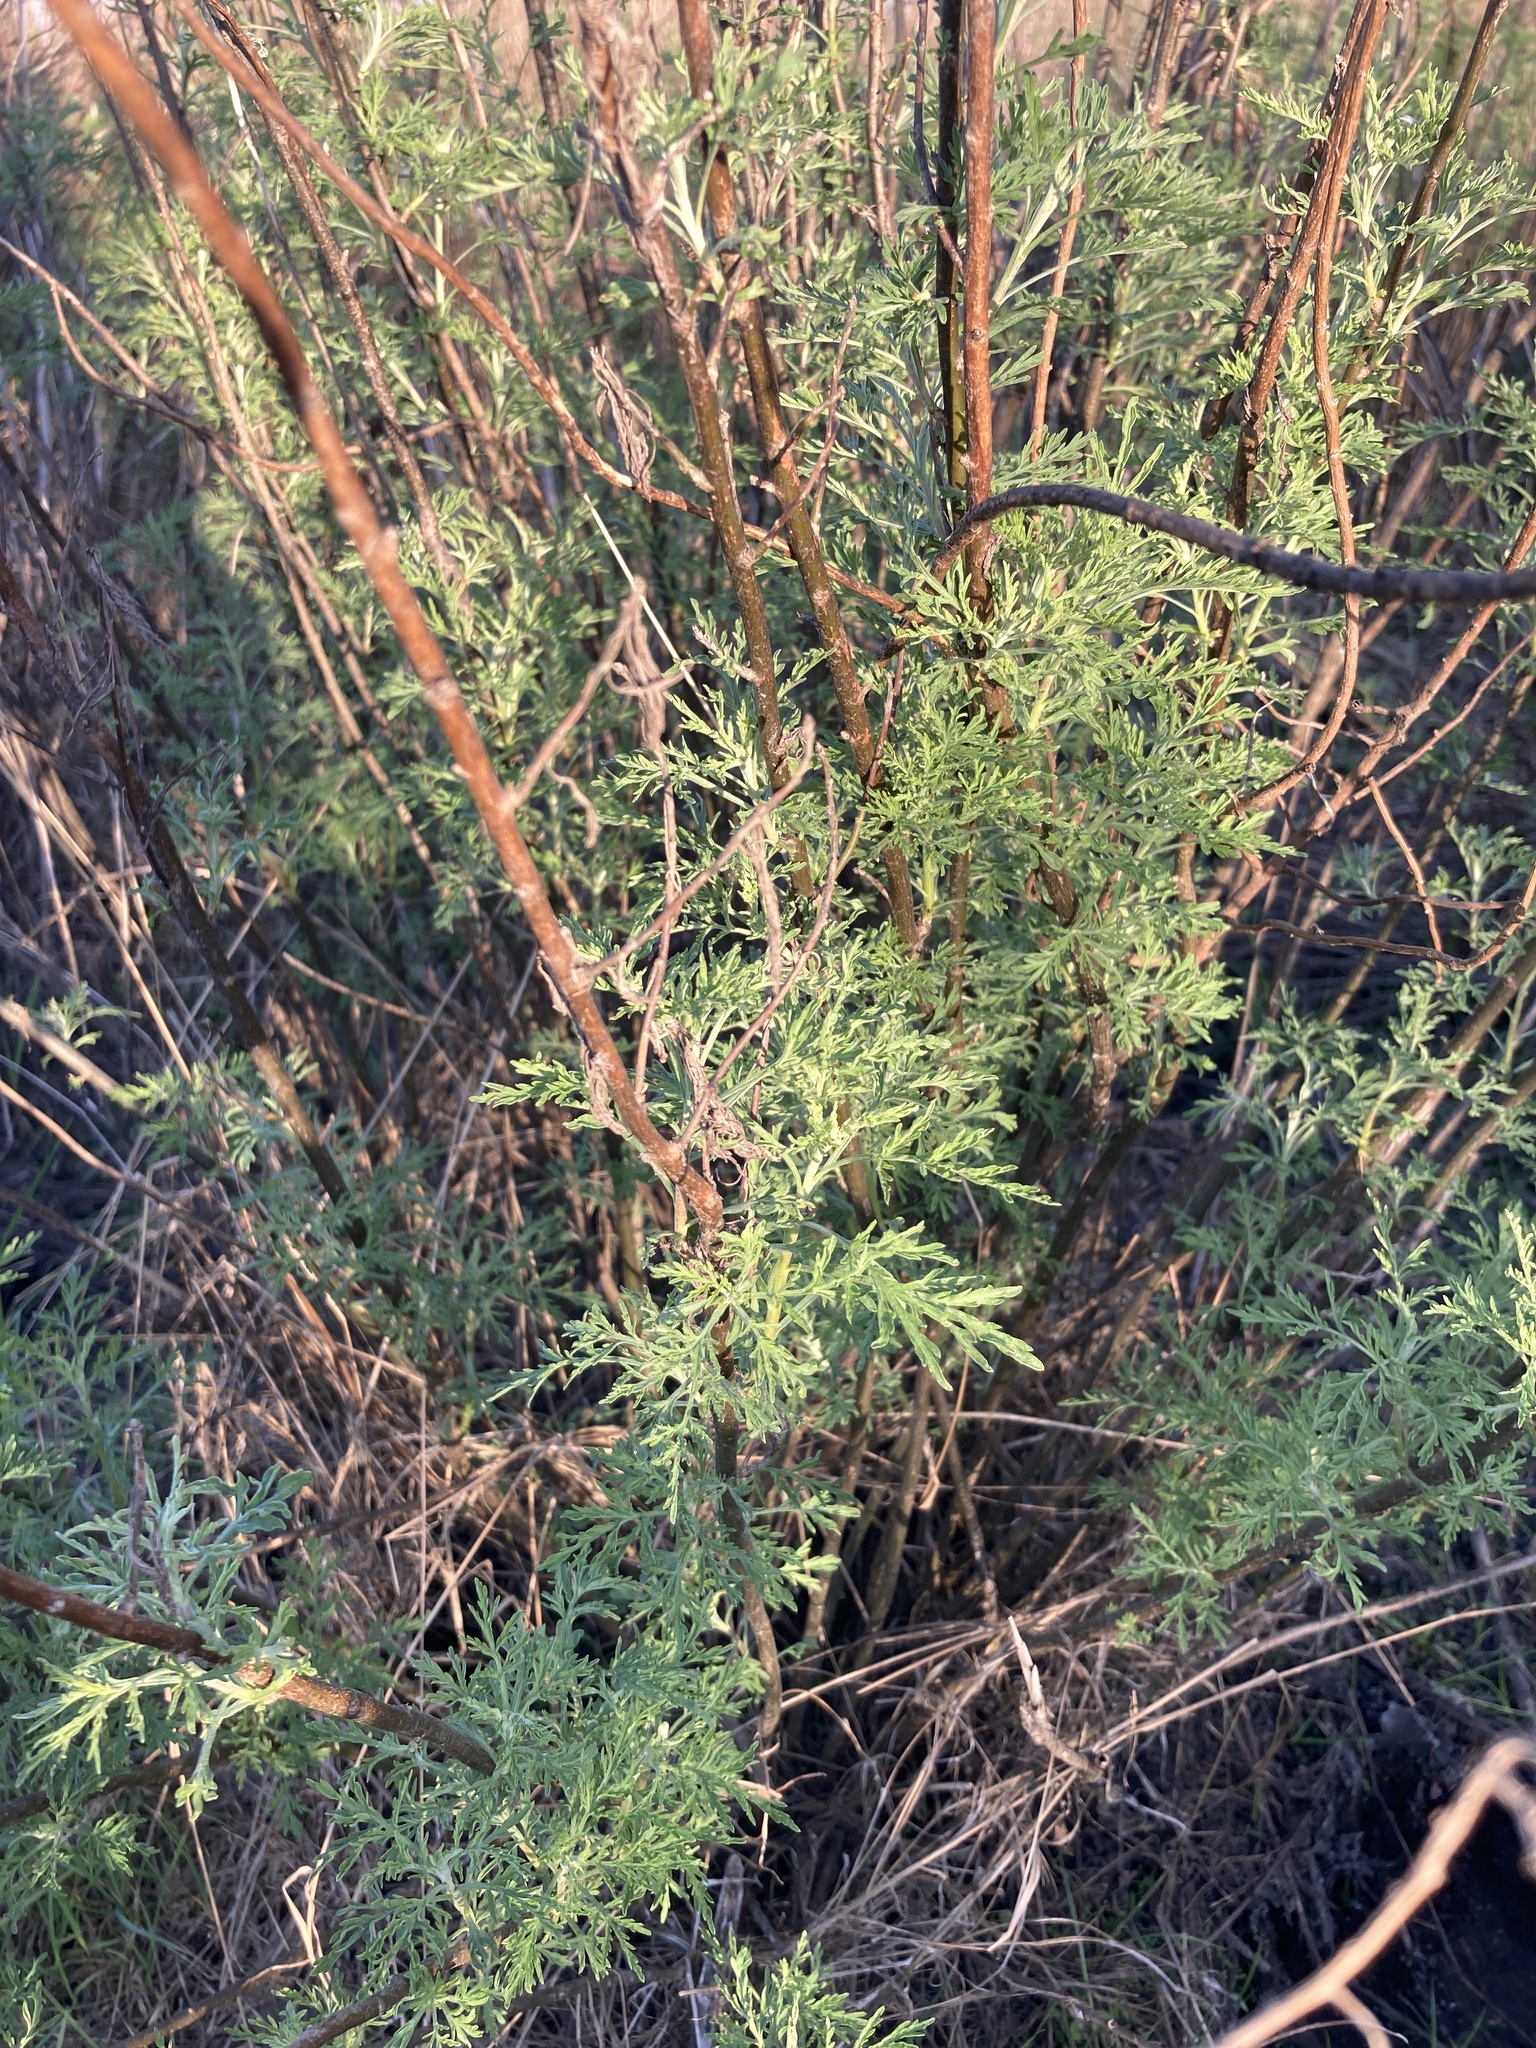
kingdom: Plantae
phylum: Tracheophyta
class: Magnoliopsida
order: Asterales
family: Asteraceae
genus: Artemisia
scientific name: Artemisia abrotanum
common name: Southernwood
